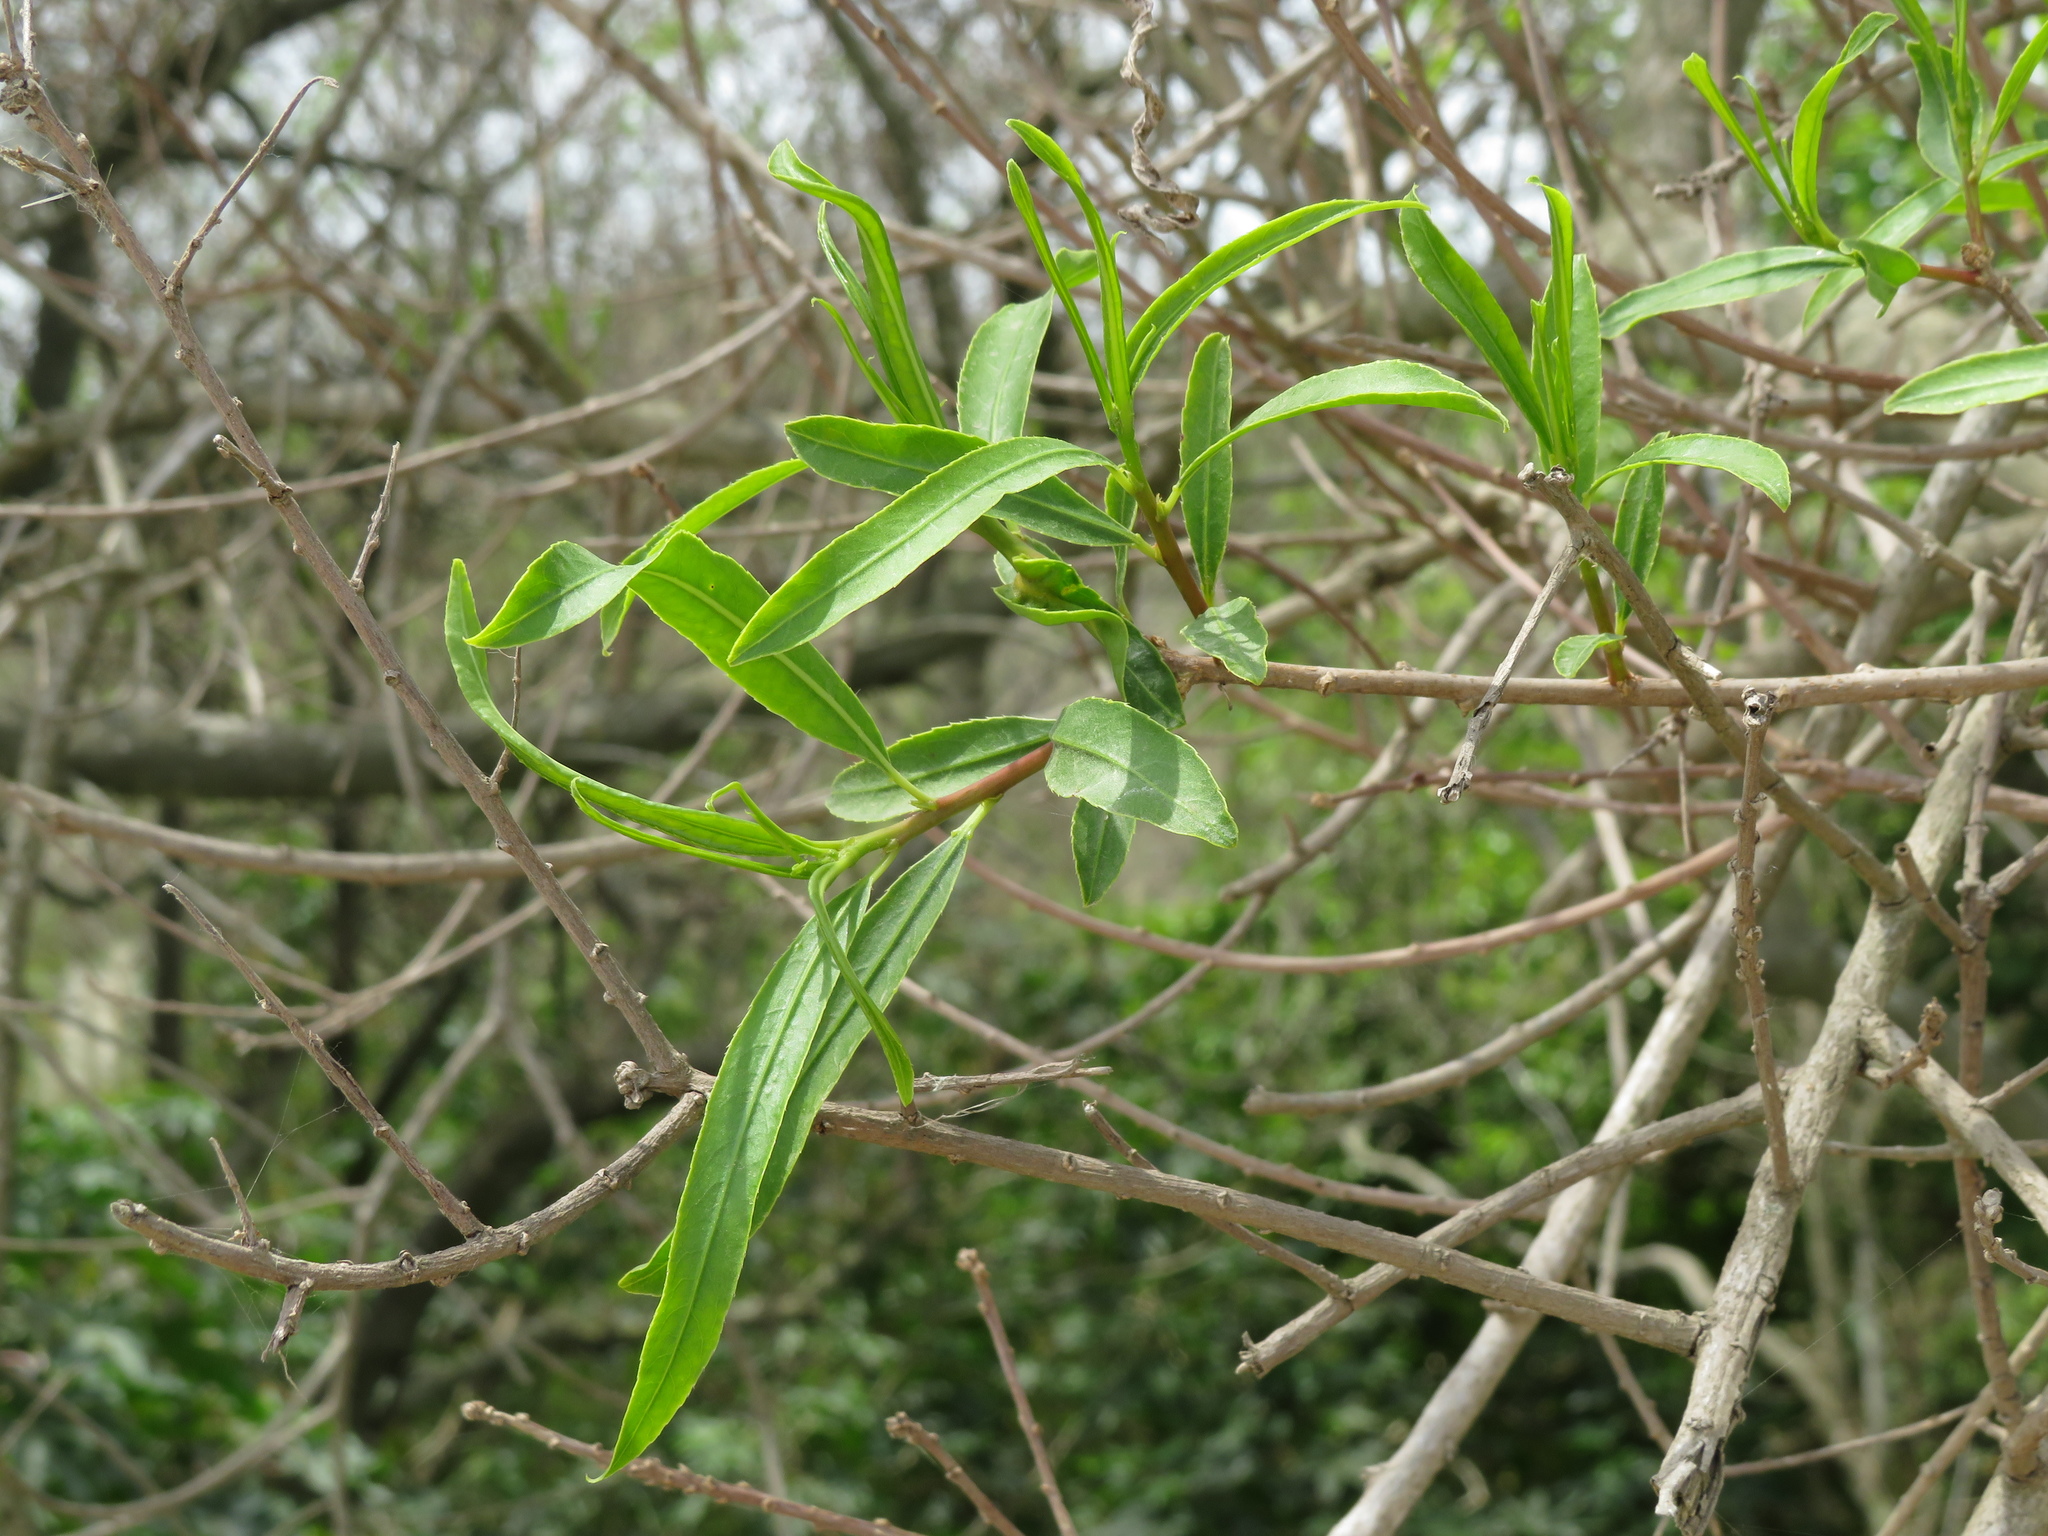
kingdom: Plantae
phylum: Tracheophyta
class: Magnoliopsida
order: Malpighiales
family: Euphorbiaceae
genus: Sapium
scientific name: Sapium haematospermum
